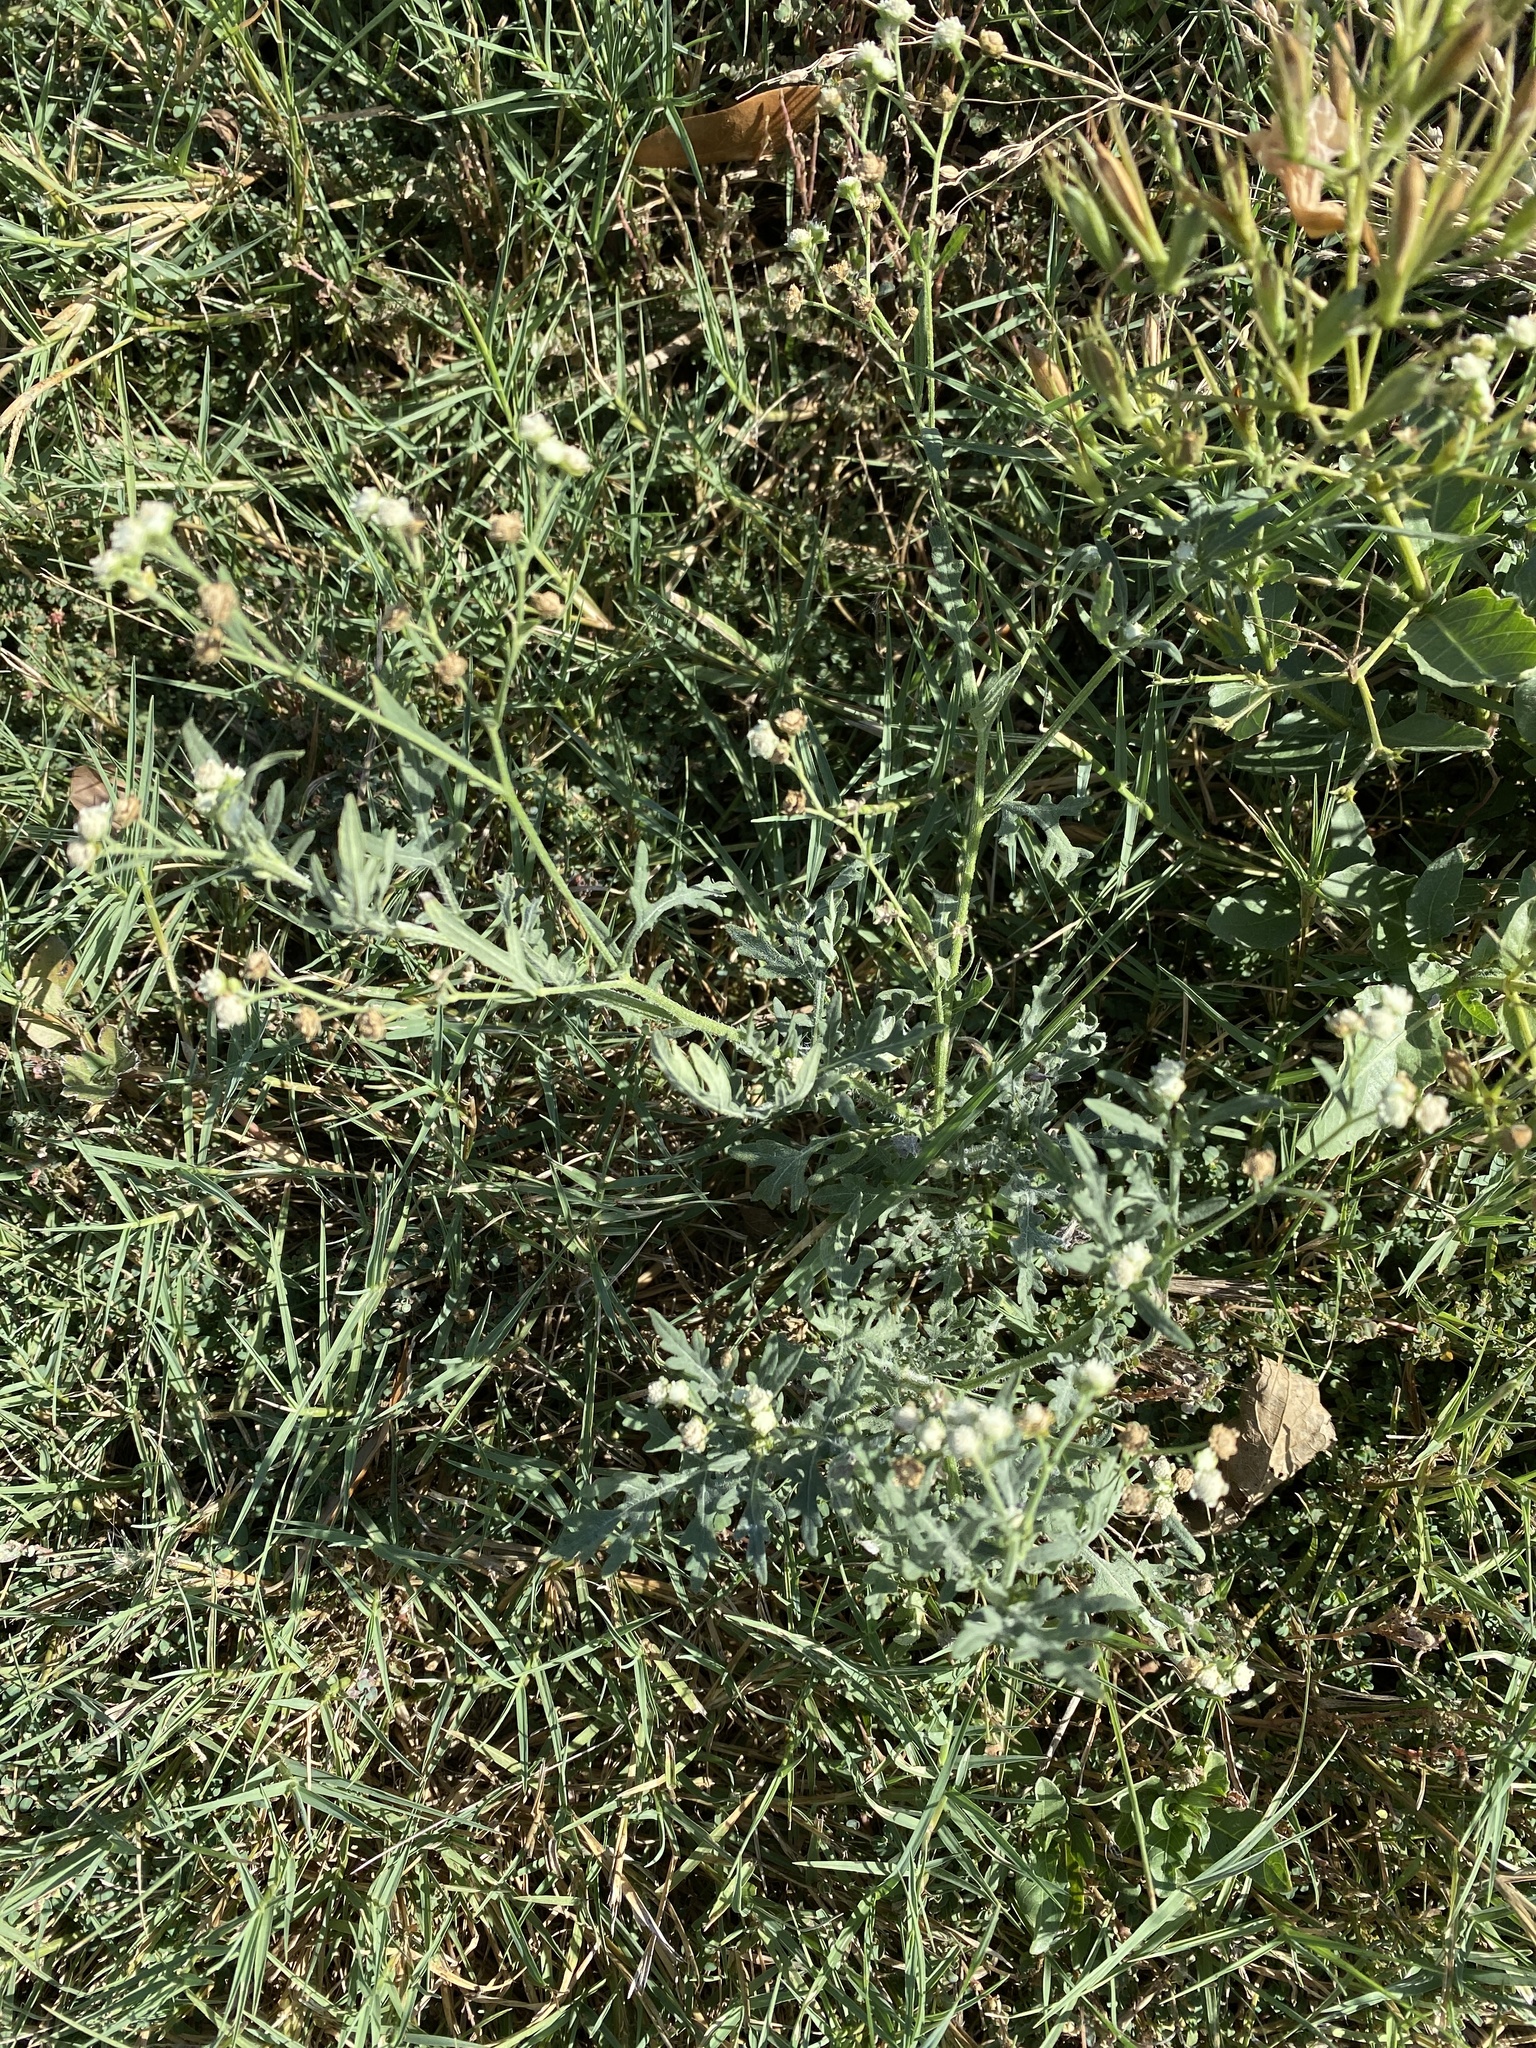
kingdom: Plantae
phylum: Tracheophyta
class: Magnoliopsida
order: Asterales
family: Asteraceae
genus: Parthenium
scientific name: Parthenium hysterophorus
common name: Santa maria feverfew
